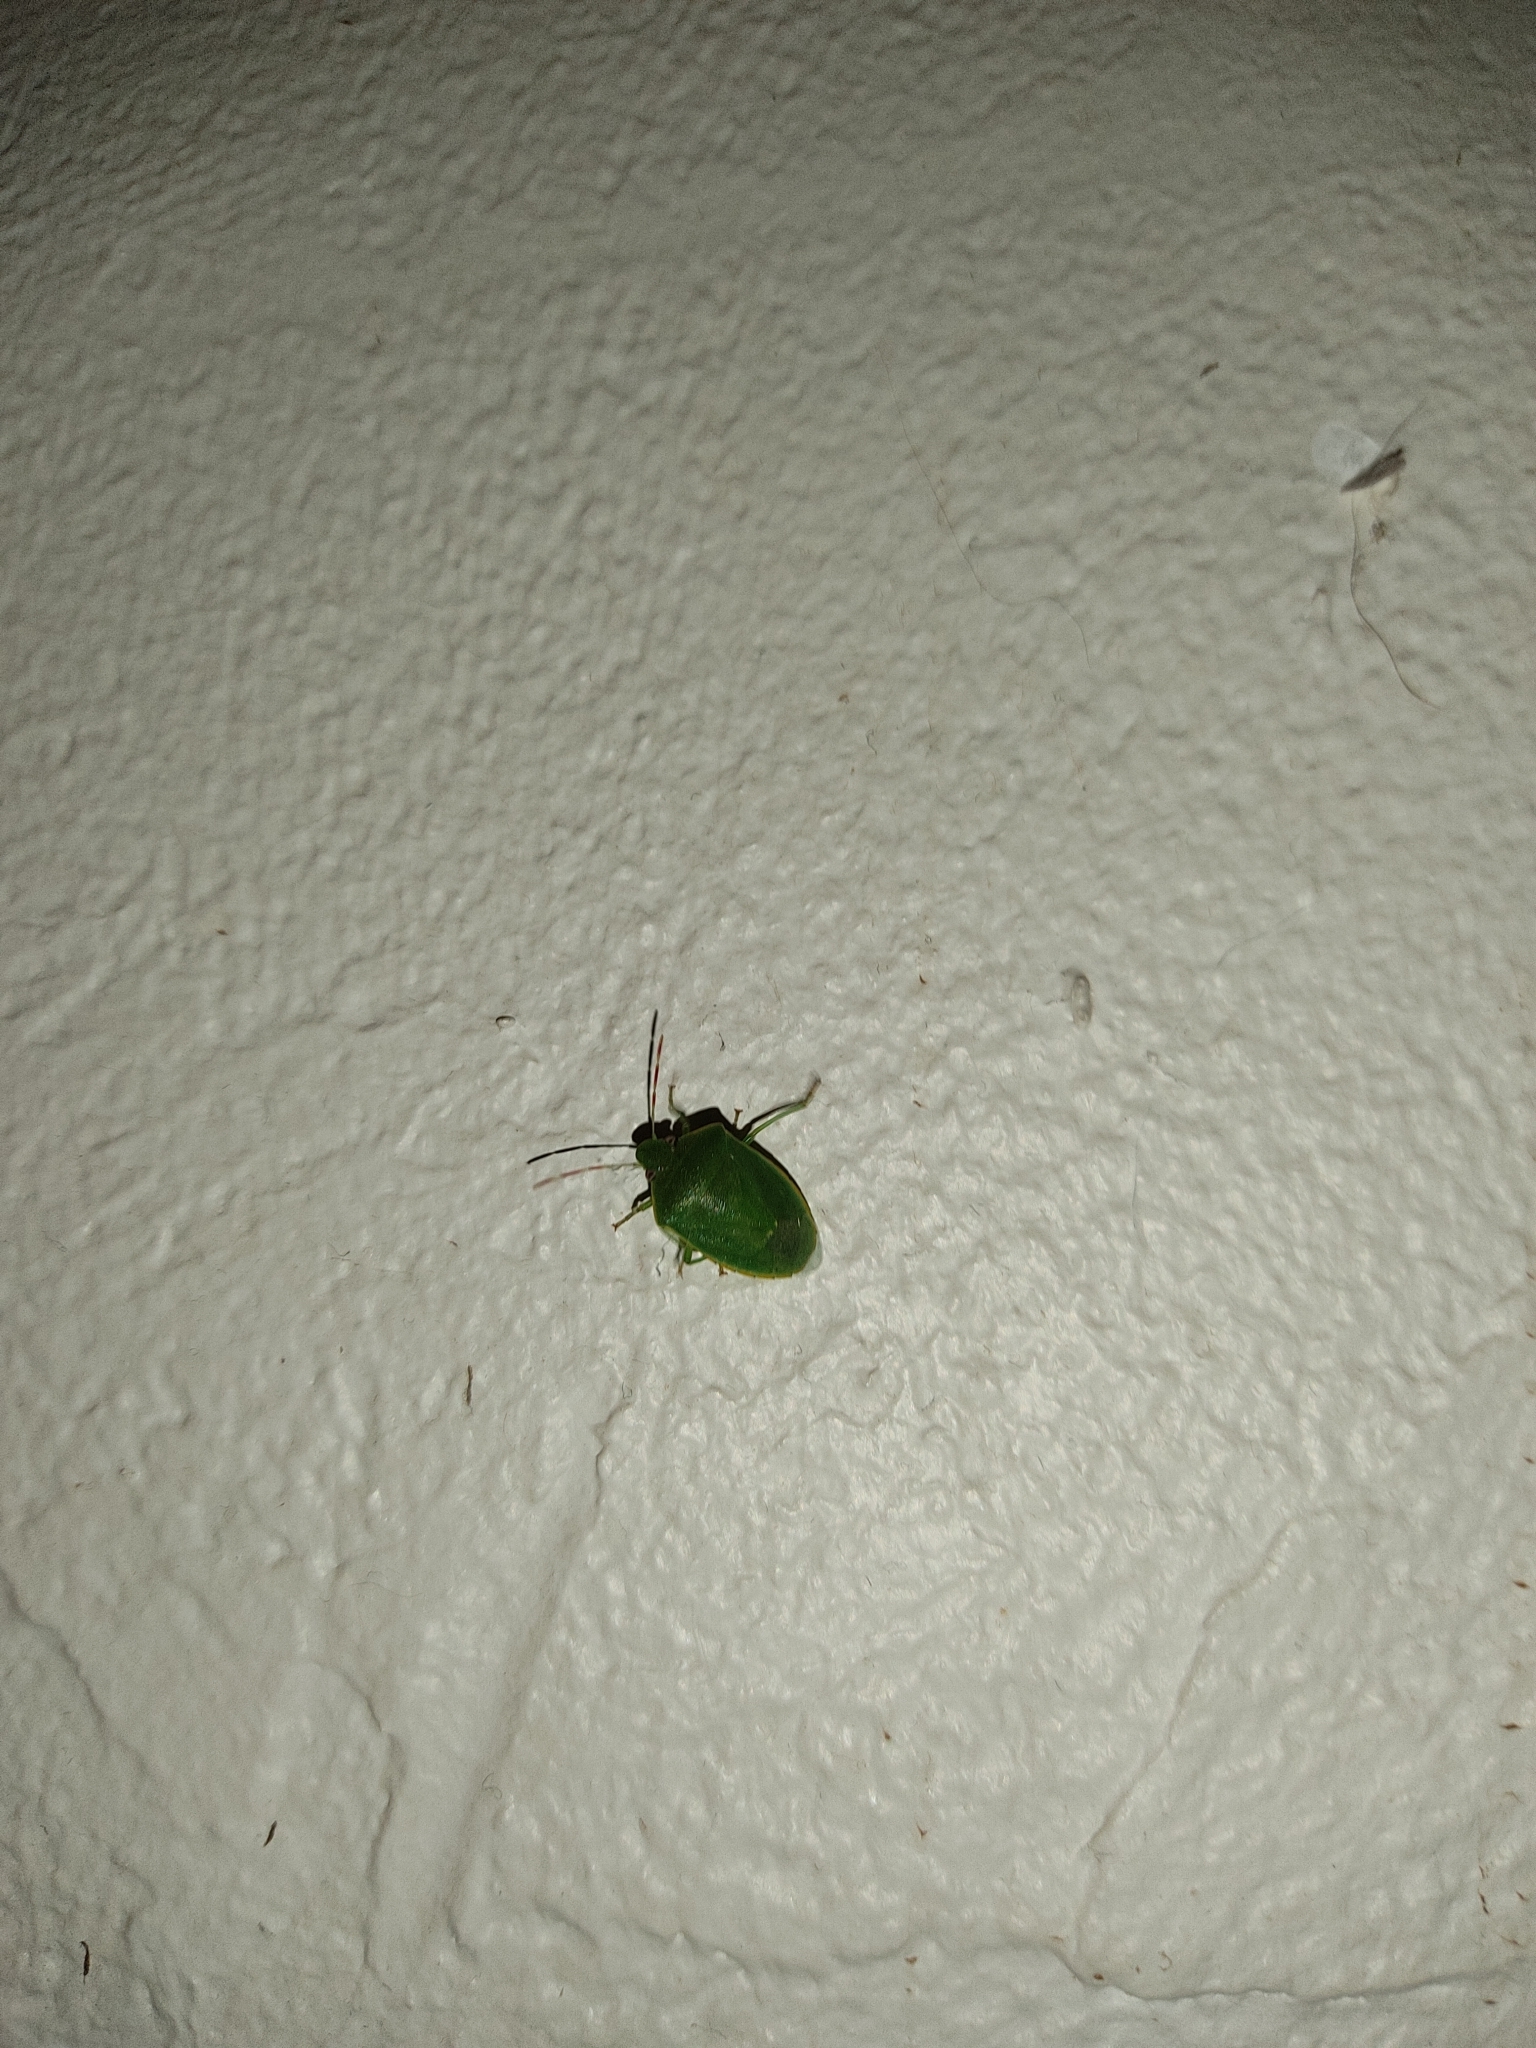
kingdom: Animalia
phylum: Arthropoda
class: Insecta
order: Hemiptera
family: Pentatomidae
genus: Acrosternum
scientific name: Acrosternum heegeri
